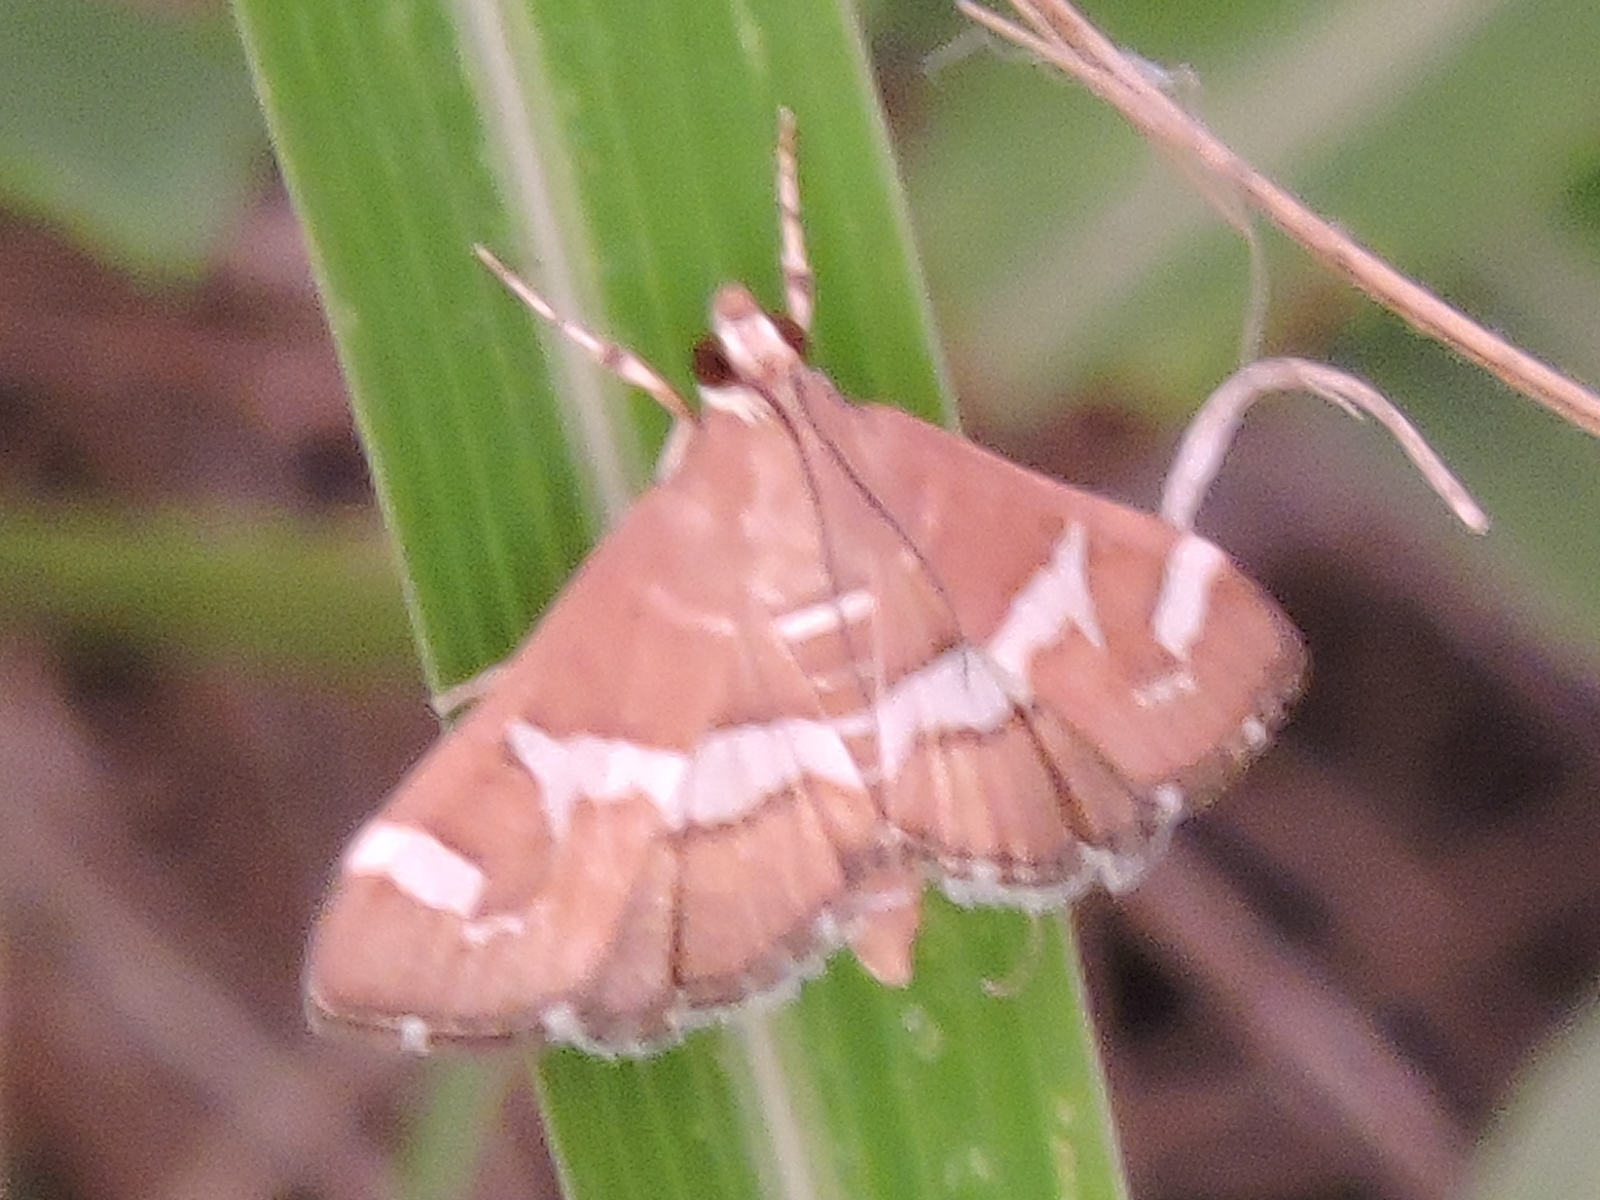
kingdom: Animalia
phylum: Arthropoda
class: Insecta
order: Lepidoptera
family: Crambidae
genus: Spoladea
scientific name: Spoladea recurvalis
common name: Beet webworm moth
